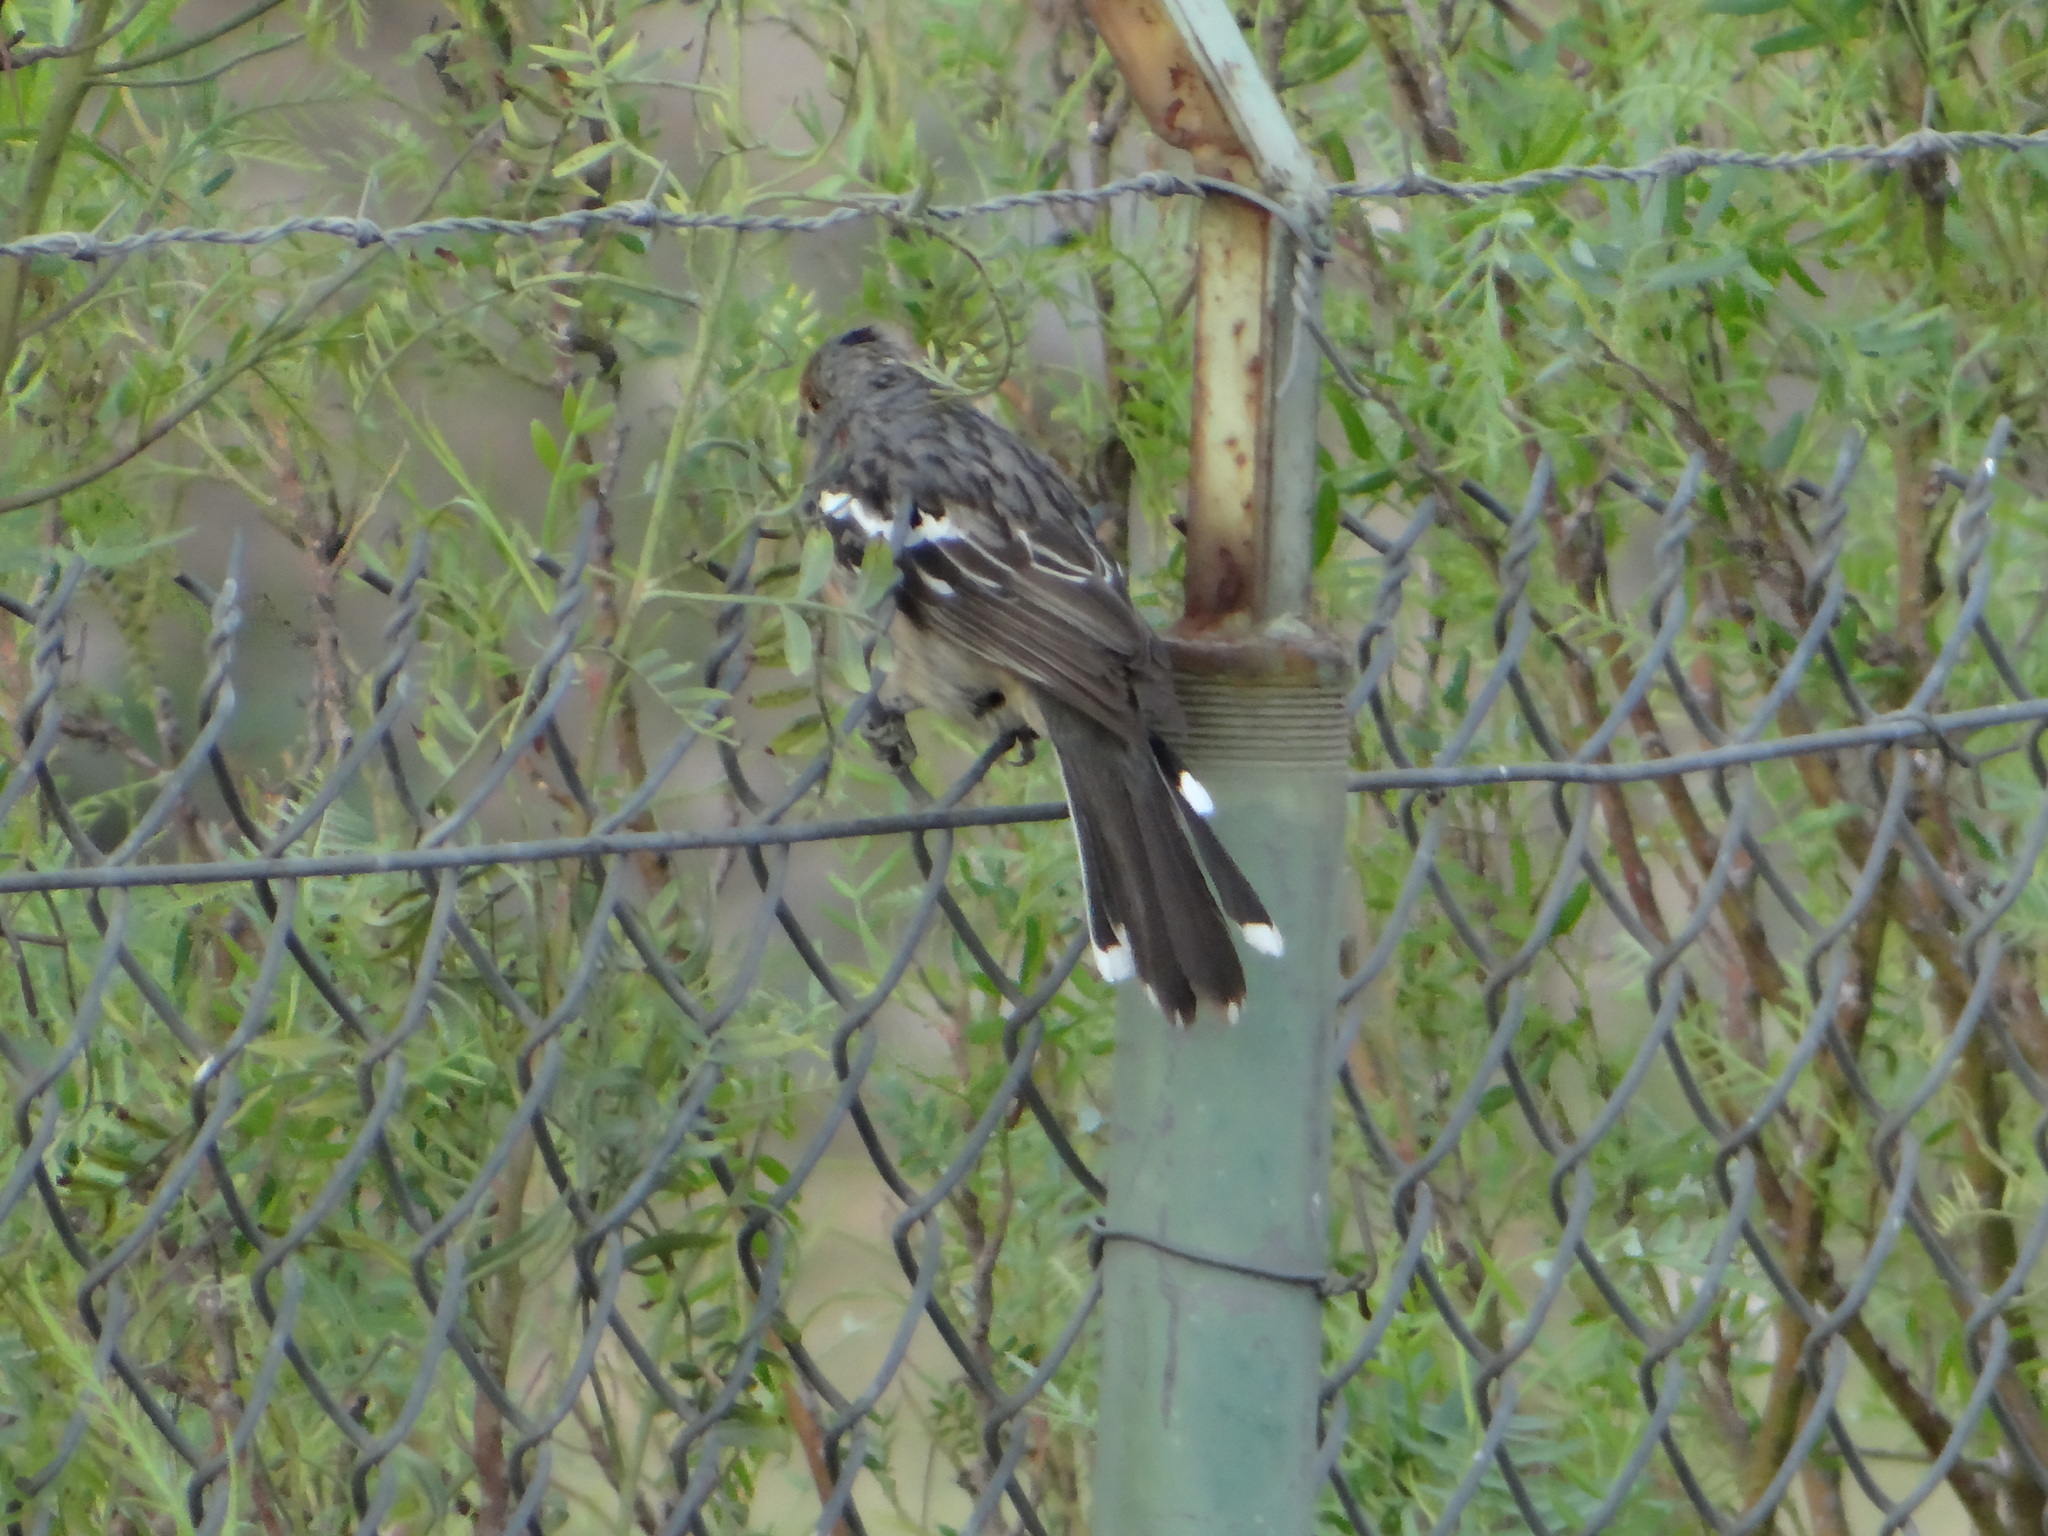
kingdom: Animalia
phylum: Chordata
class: Aves
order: Passeriformes
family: Cotingidae
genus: Phytotoma
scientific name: Phytotoma rutila
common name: White-tipped plantcutter
